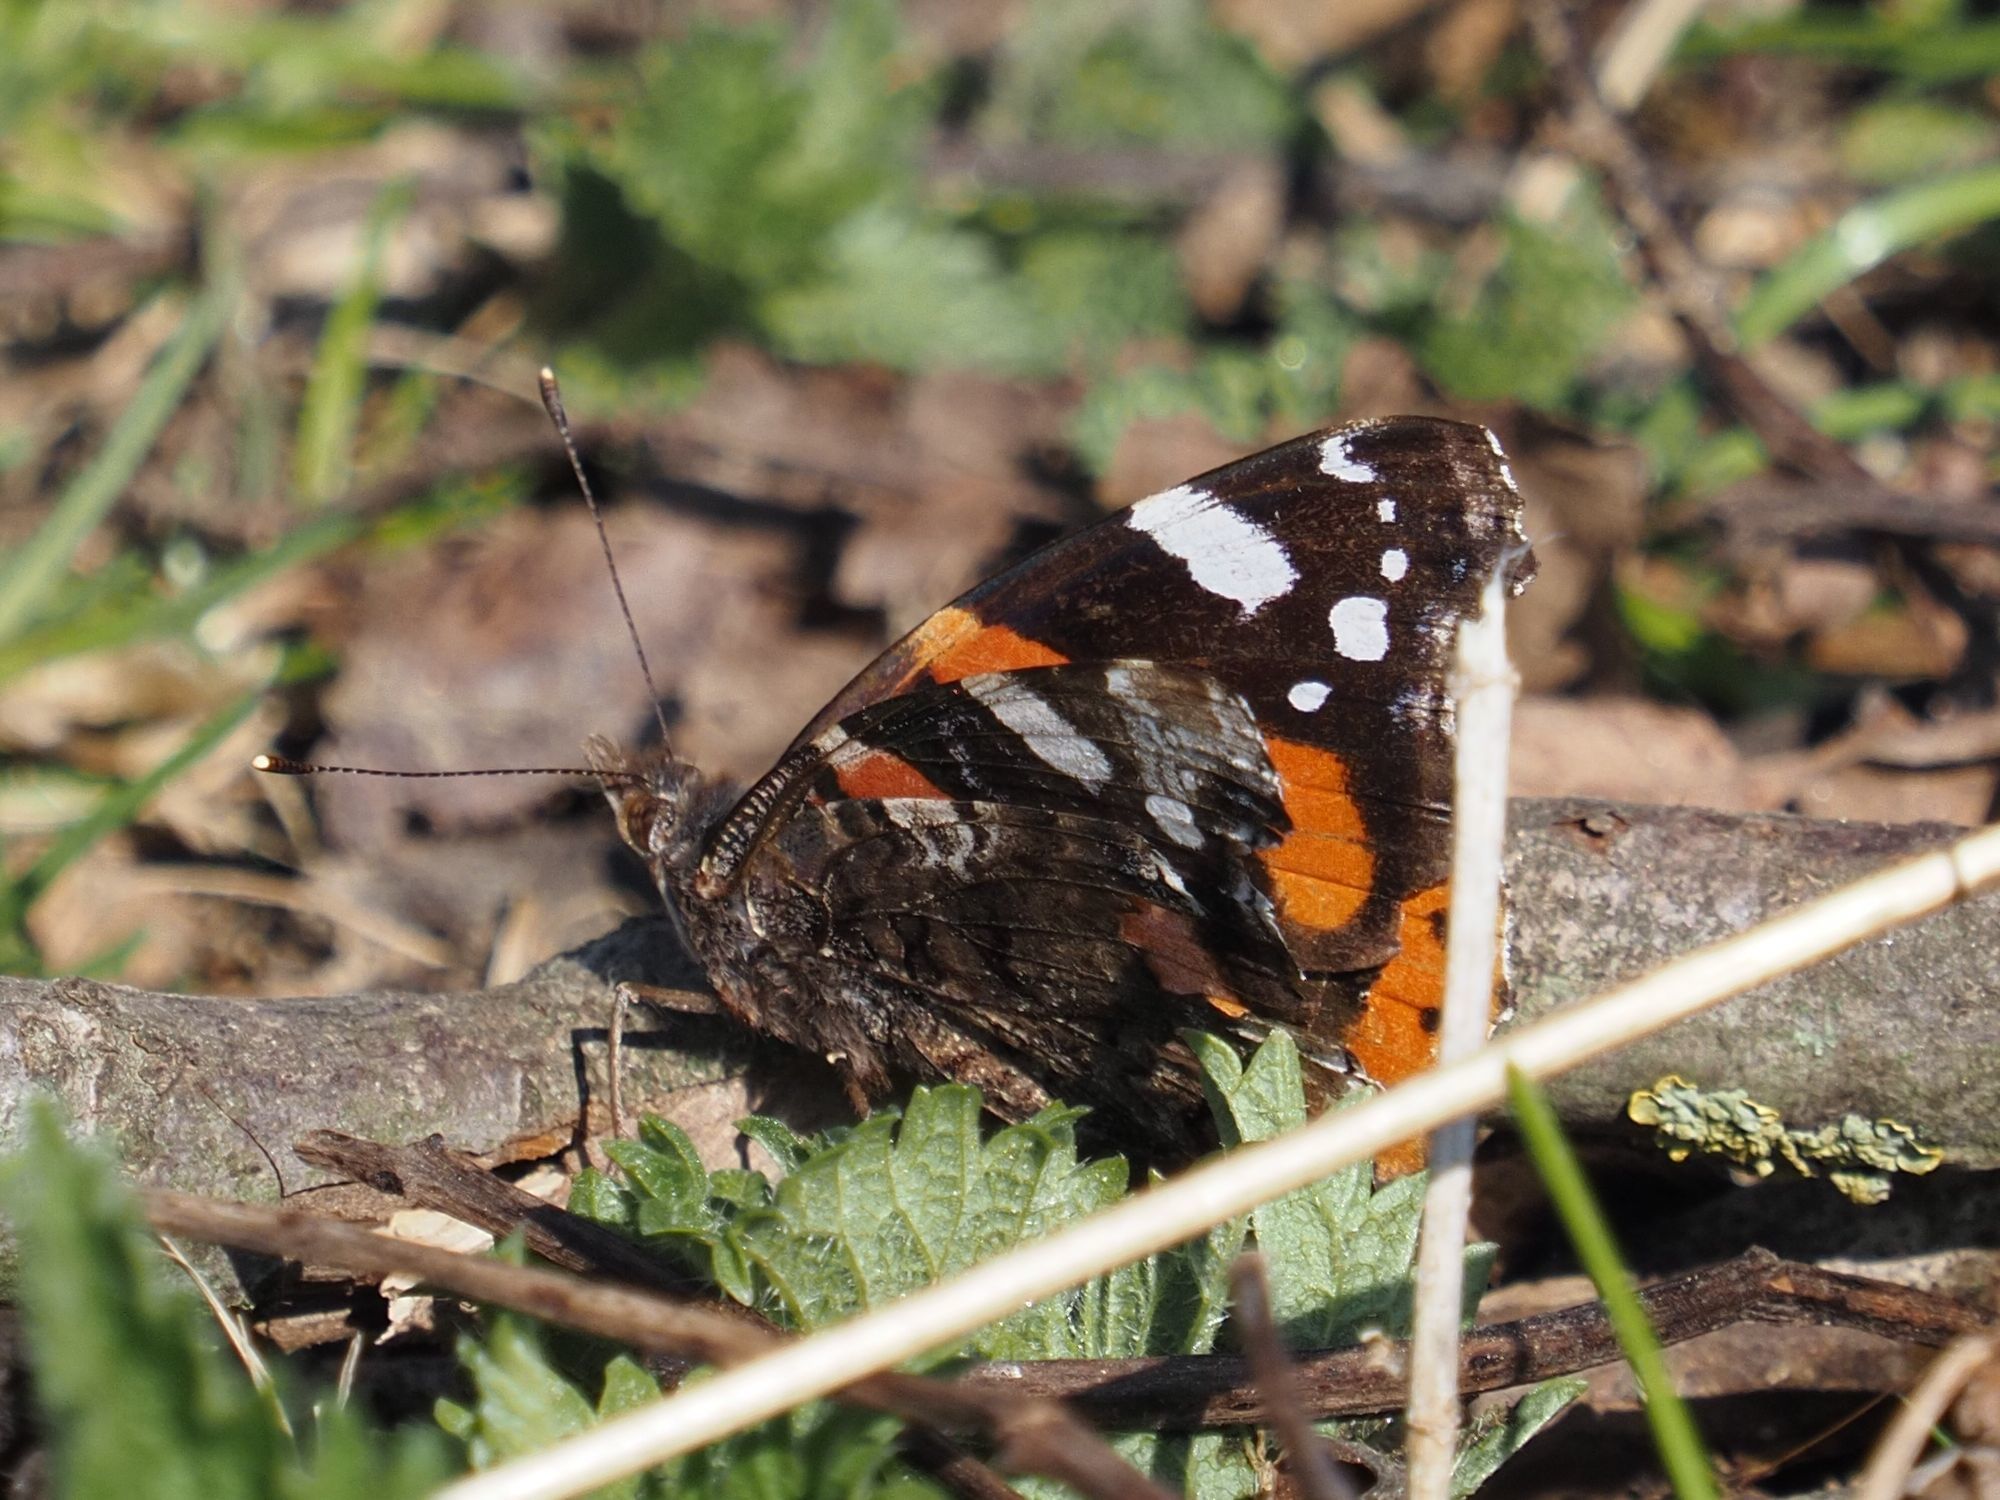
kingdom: Animalia
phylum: Arthropoda
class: Insecta
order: Lepidoptera
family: Nymphalidae
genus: Vanessa
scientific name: Vanessa atalanta
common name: Red admiral
